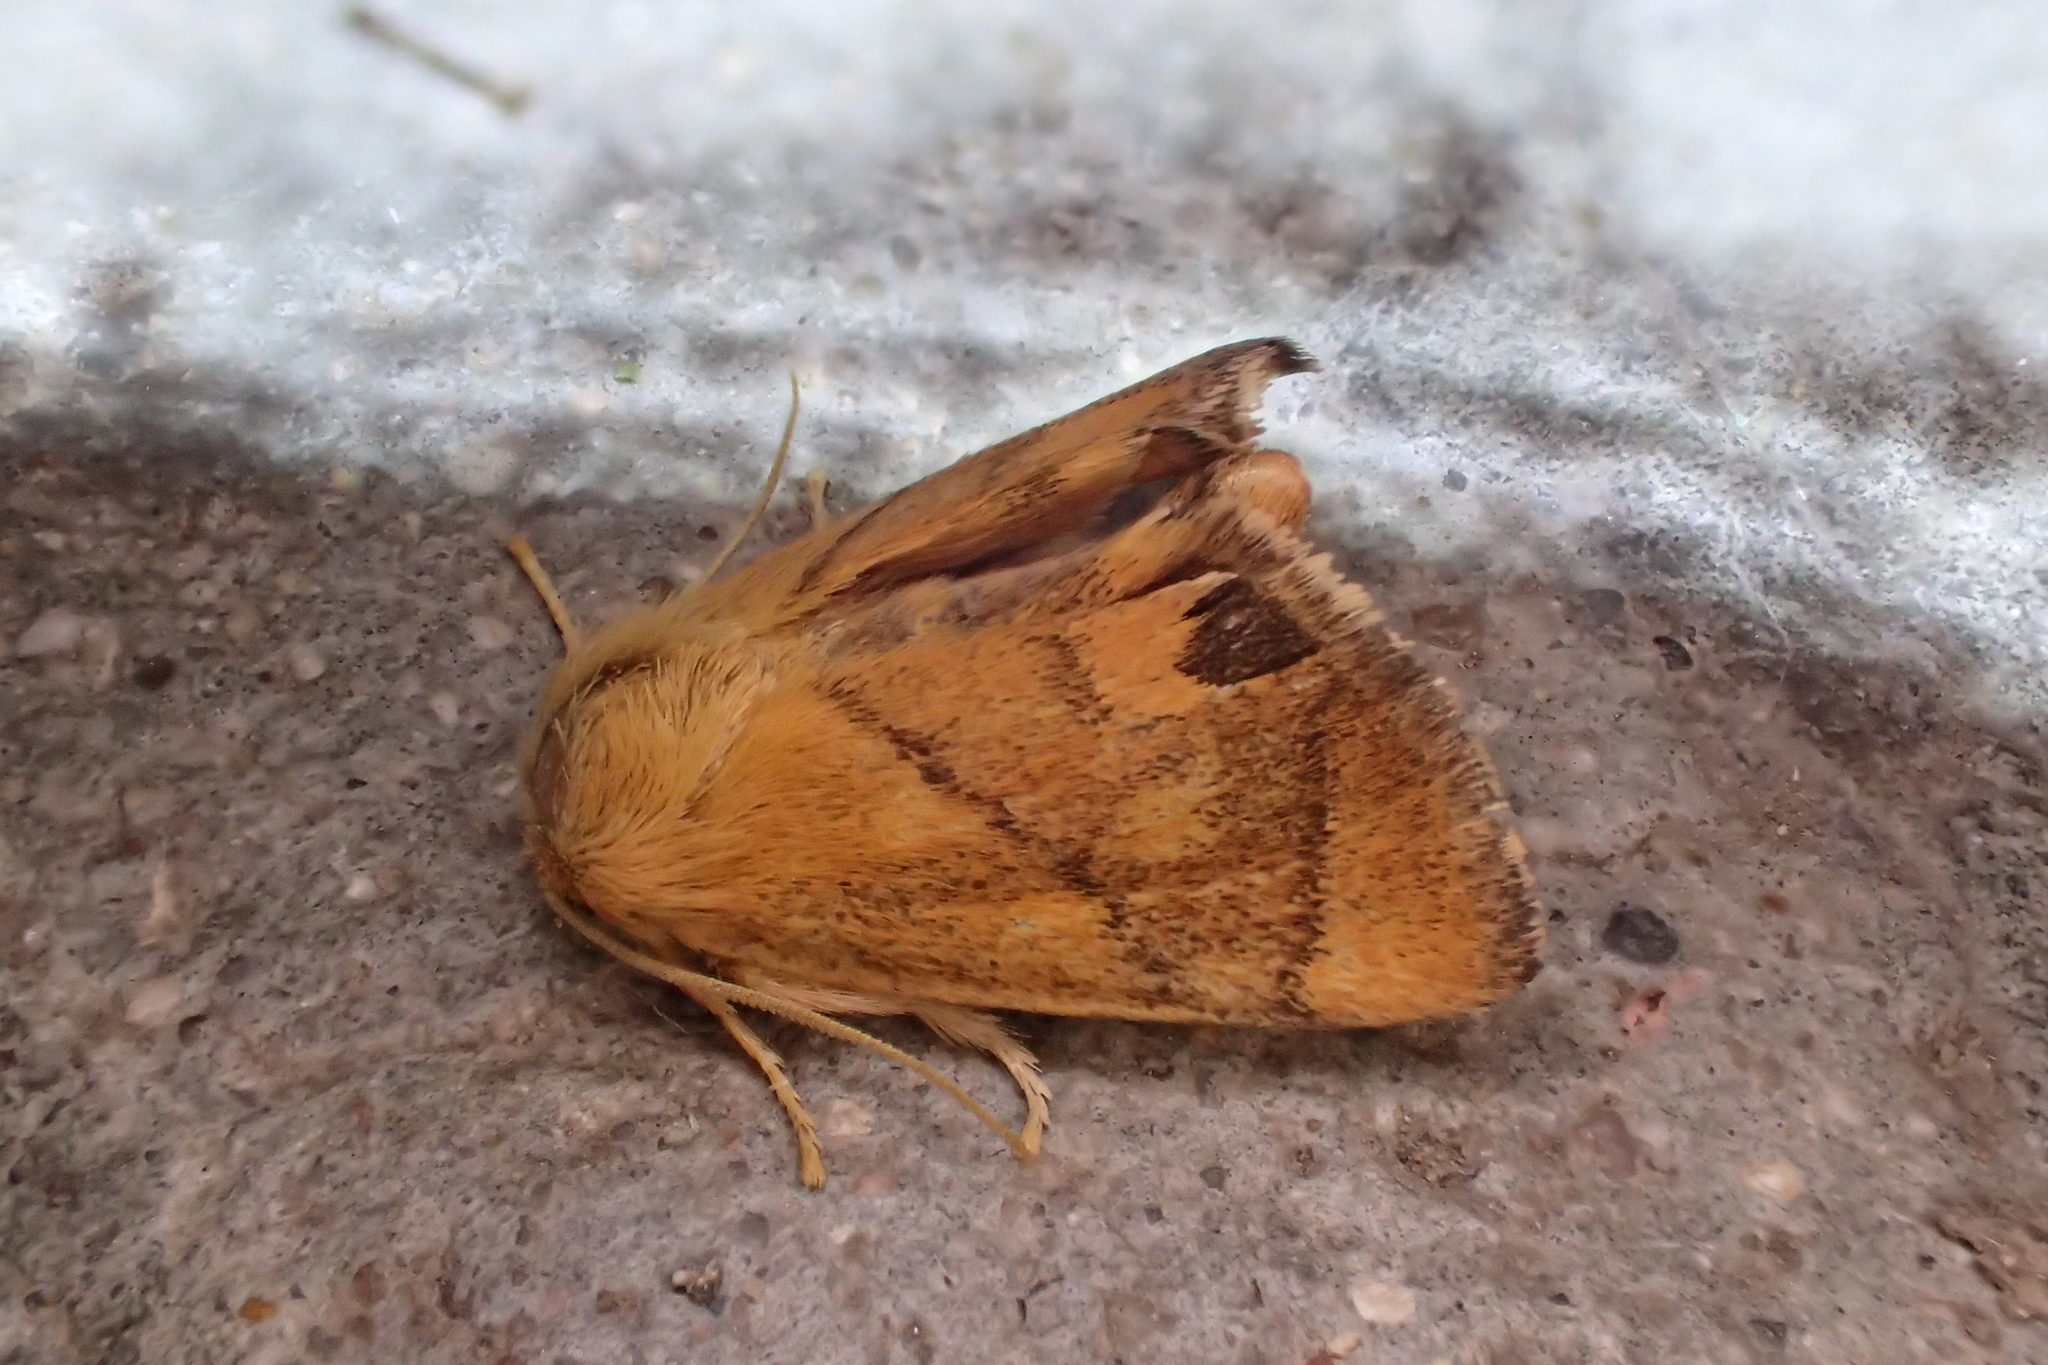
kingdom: Animalia
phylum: Arthropoda
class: Insecta
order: Lepidoptera
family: Limacodidae
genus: Apoda
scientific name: Apoda limacodes
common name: Festoon
